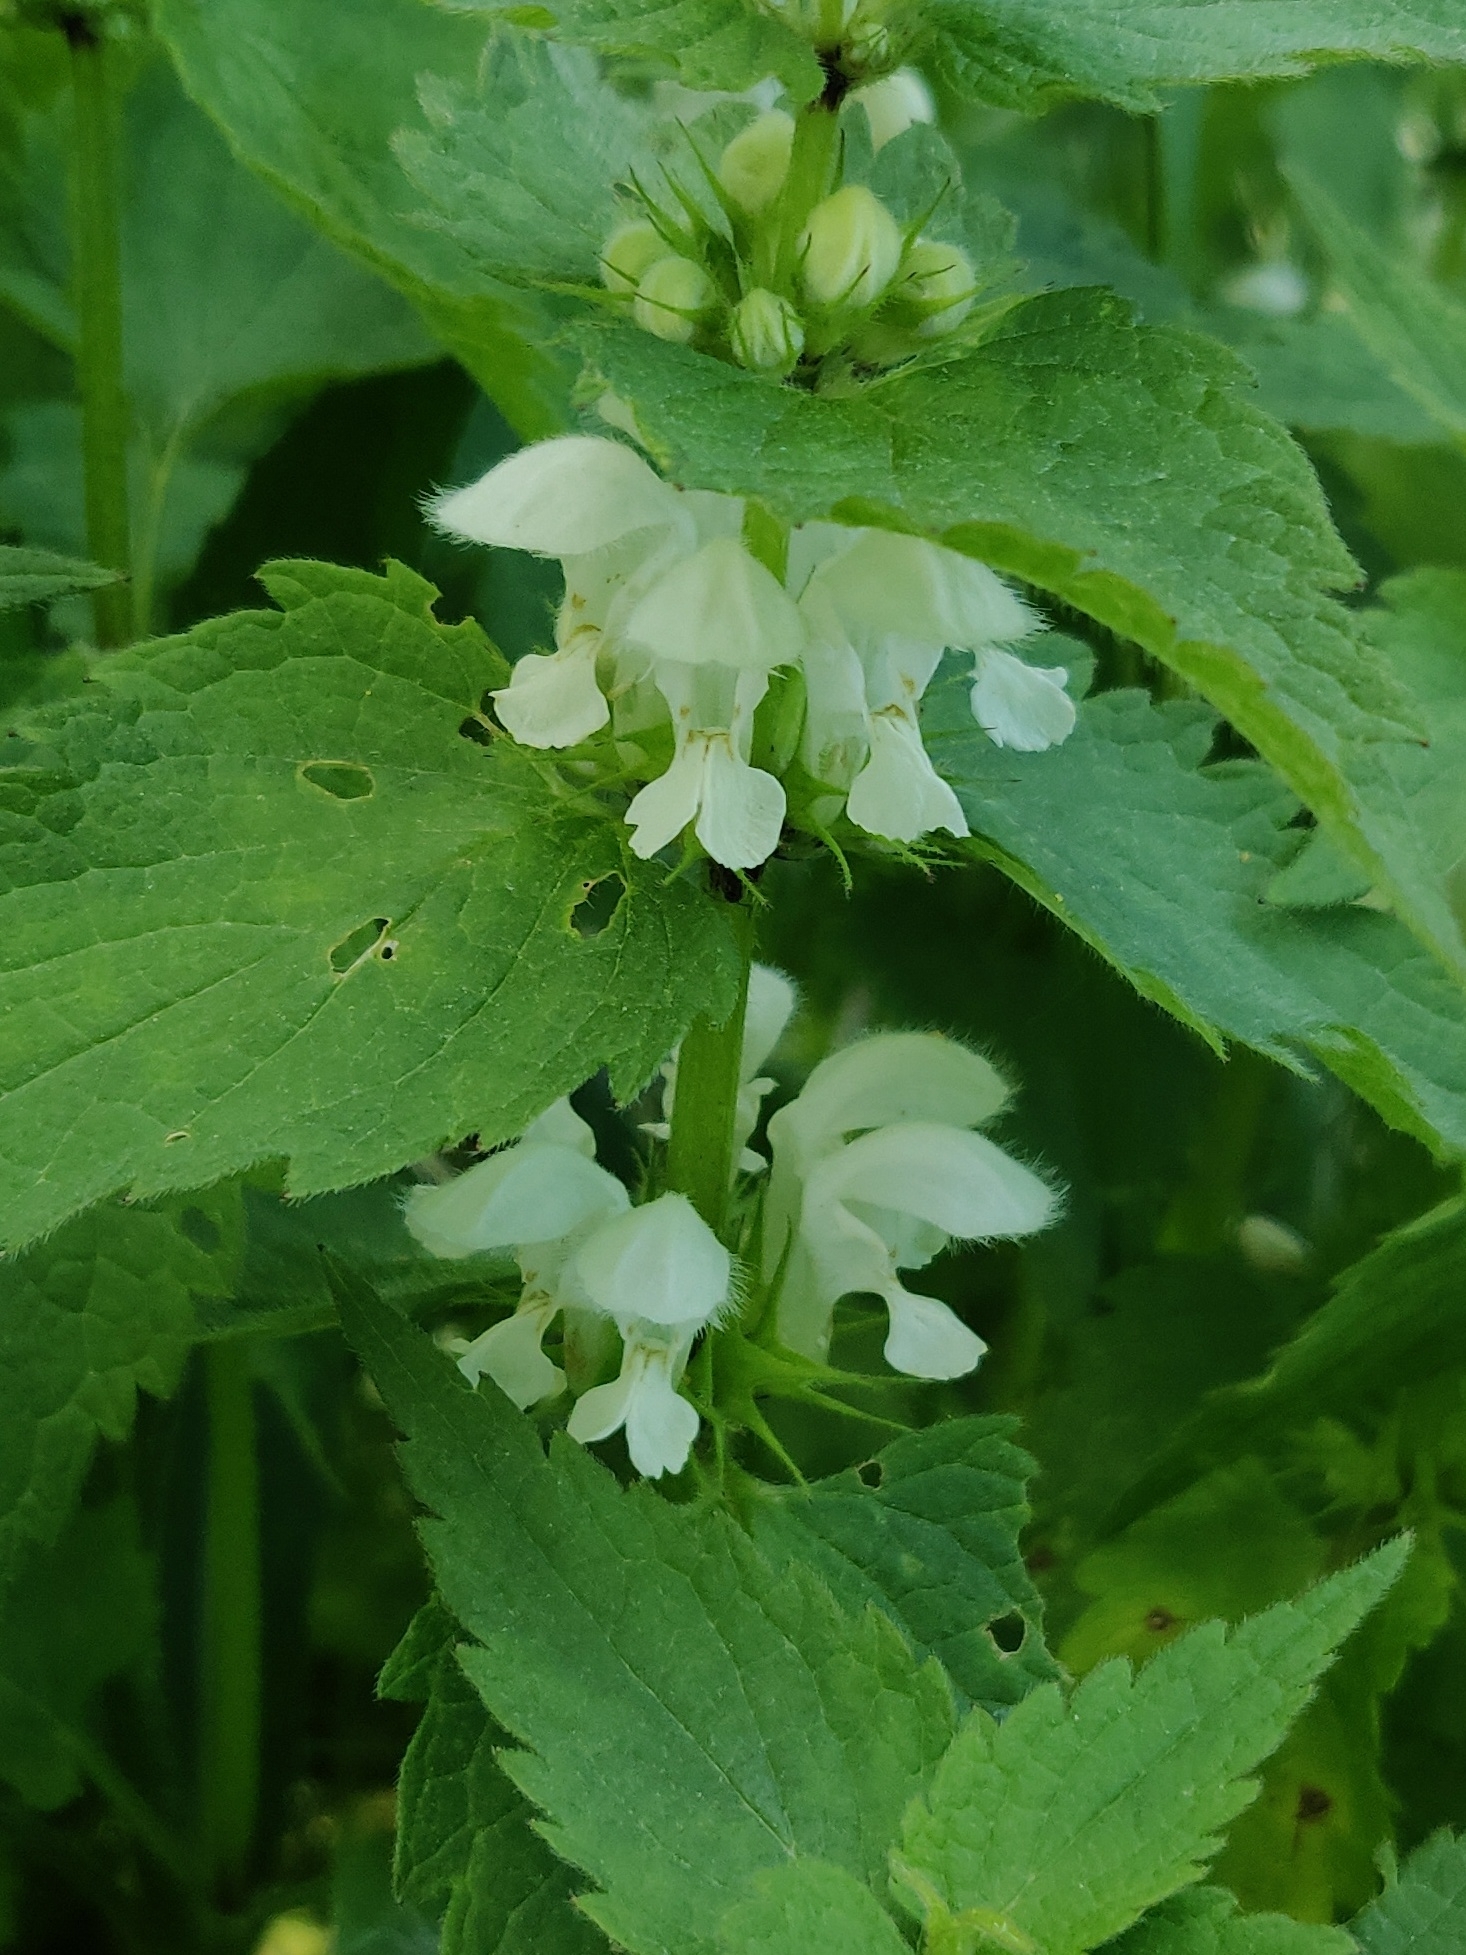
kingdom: Plantae
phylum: Tracheophyta
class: Magnoliopsida
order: Lamiales
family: Lamiaceae
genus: Lamium
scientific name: Lamium album
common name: White dead-nettle
